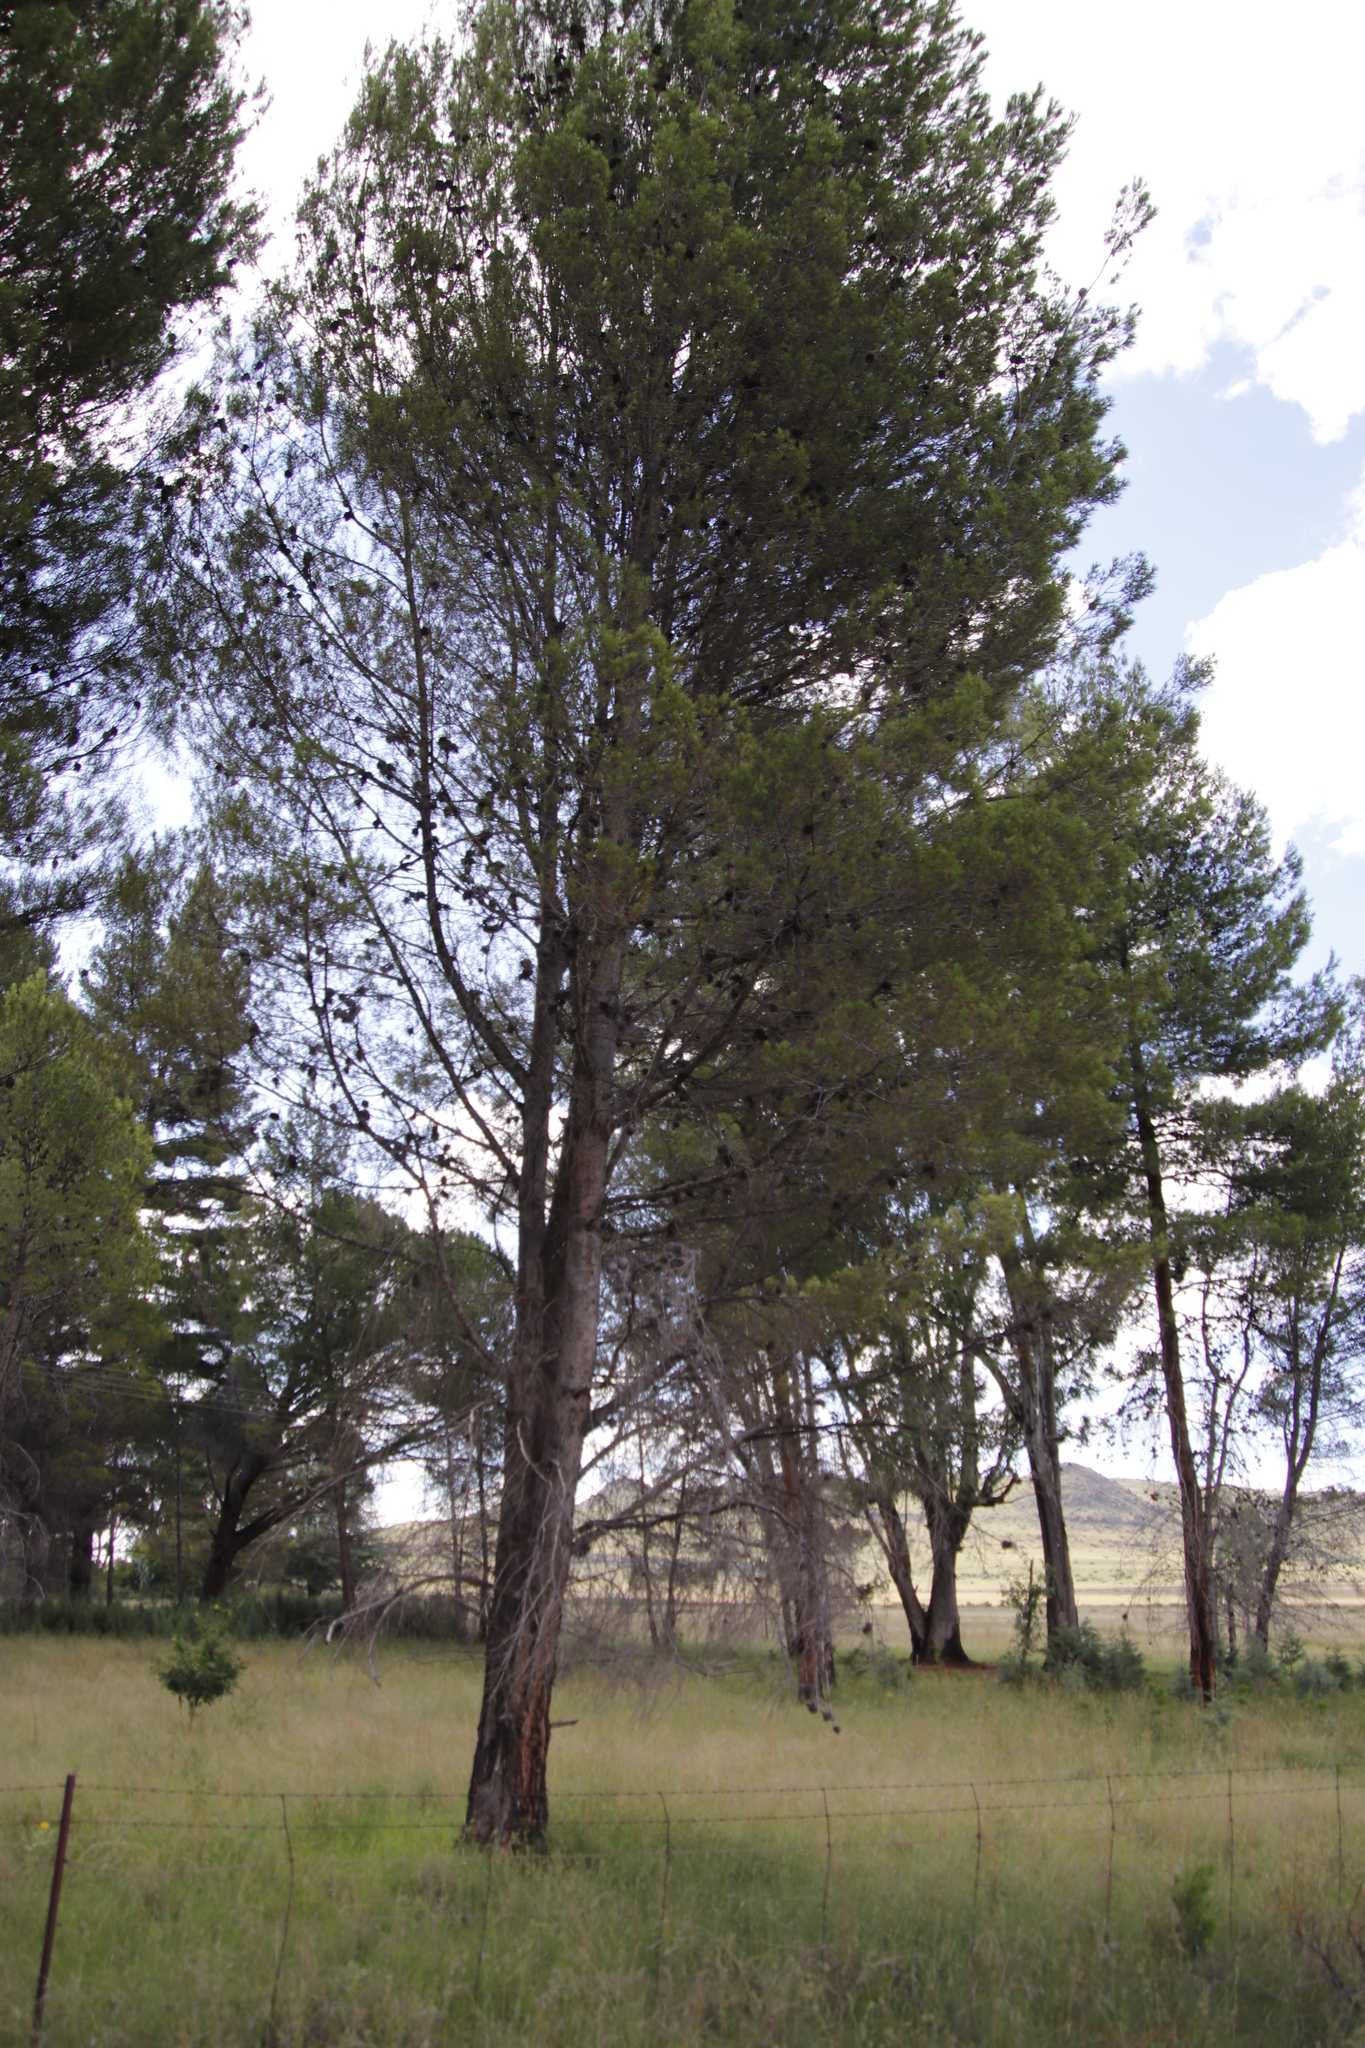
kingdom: Plantae
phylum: Tracheophyta
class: Pinopsida
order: Pinales
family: Pinaceae
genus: Pinus
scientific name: Pinus halepensis
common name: Aleppo pine
